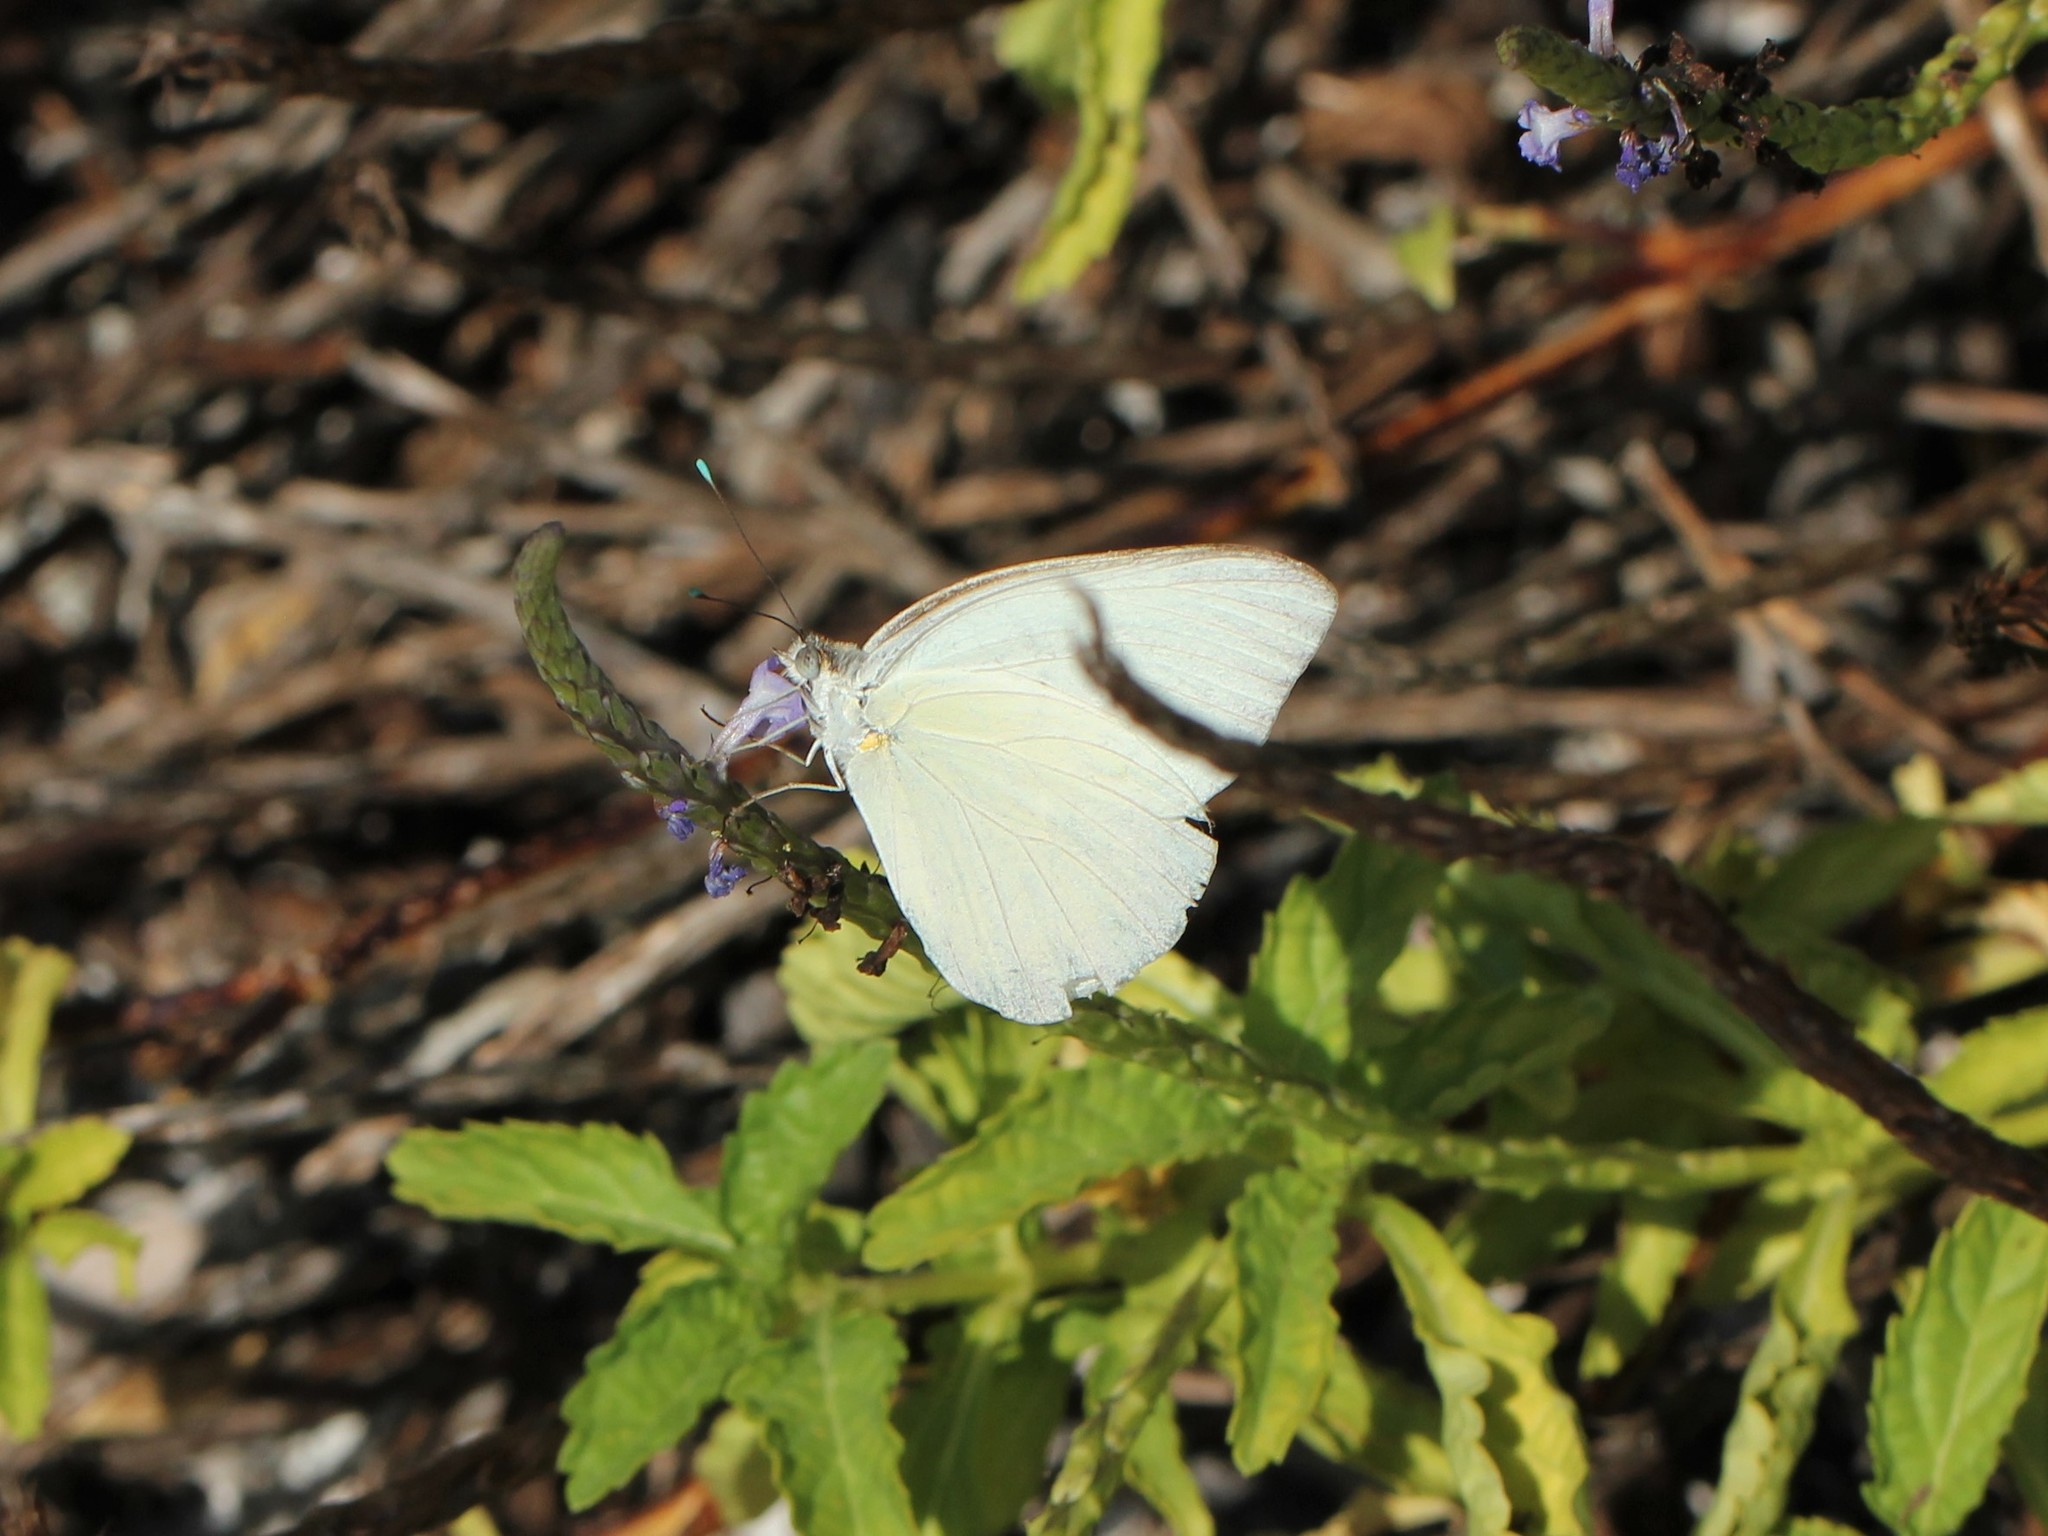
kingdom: Animalia
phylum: Arthropoda
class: Insecta
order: Lepidoptera
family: Pieridae
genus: Ascia
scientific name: Ascia monuste
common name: Great southern white
